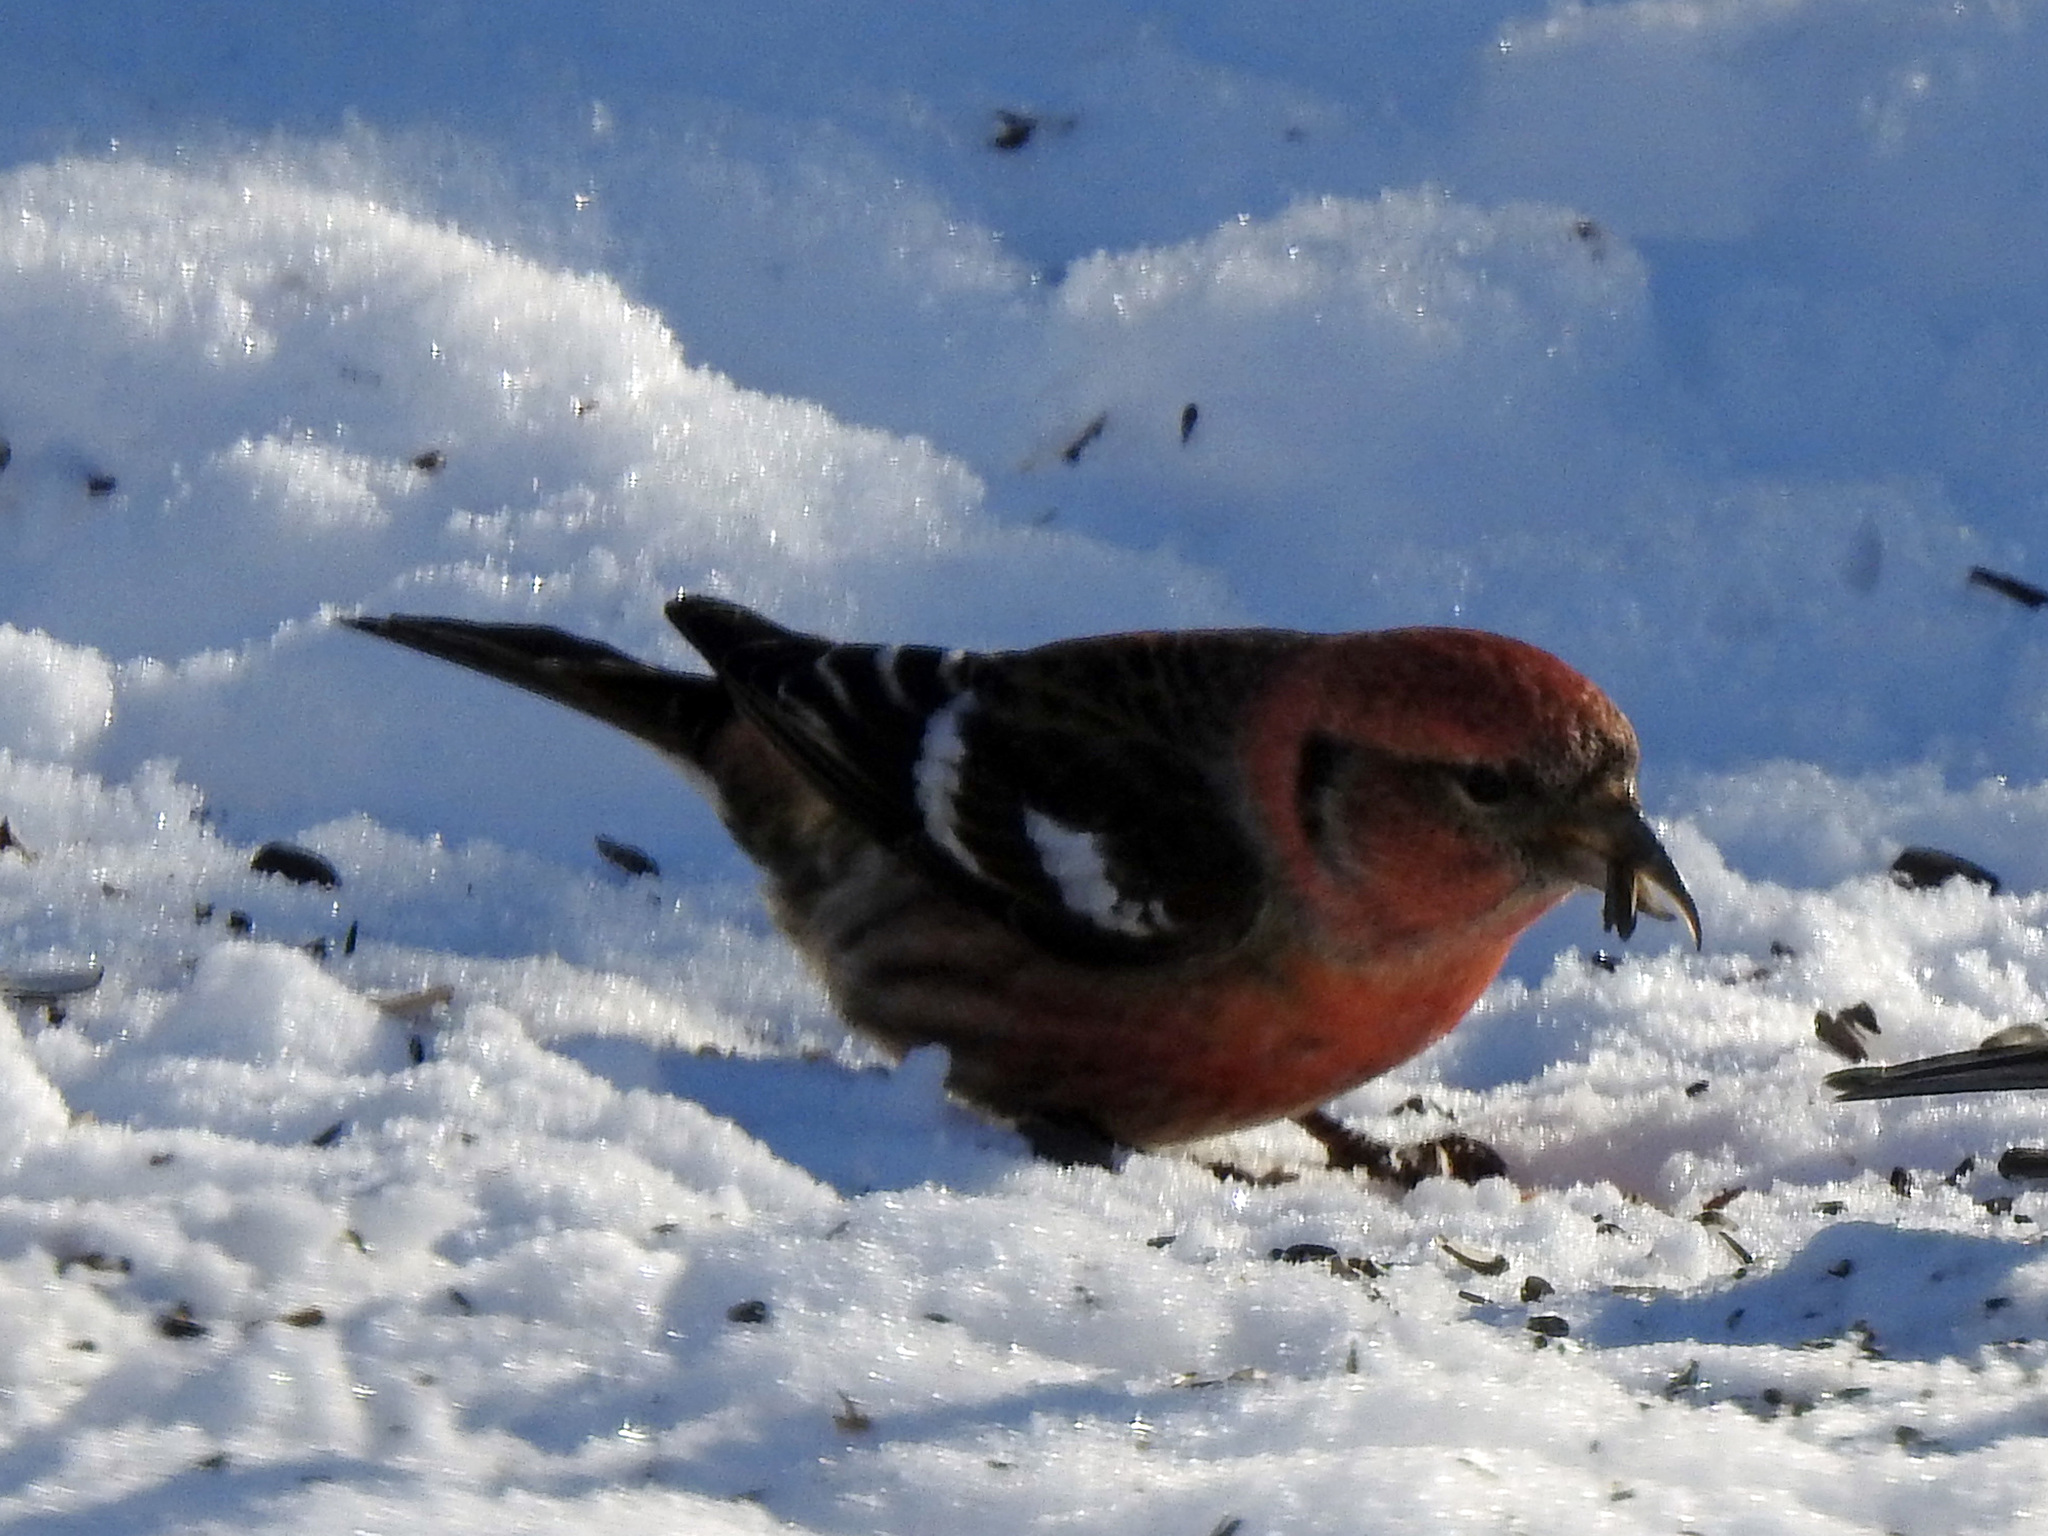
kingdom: Animalia
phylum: Chordata
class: Aves
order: Passeriformes
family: Fringillidae
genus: Loxia
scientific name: Loxia leucoptera
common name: Two-barred crossbill
